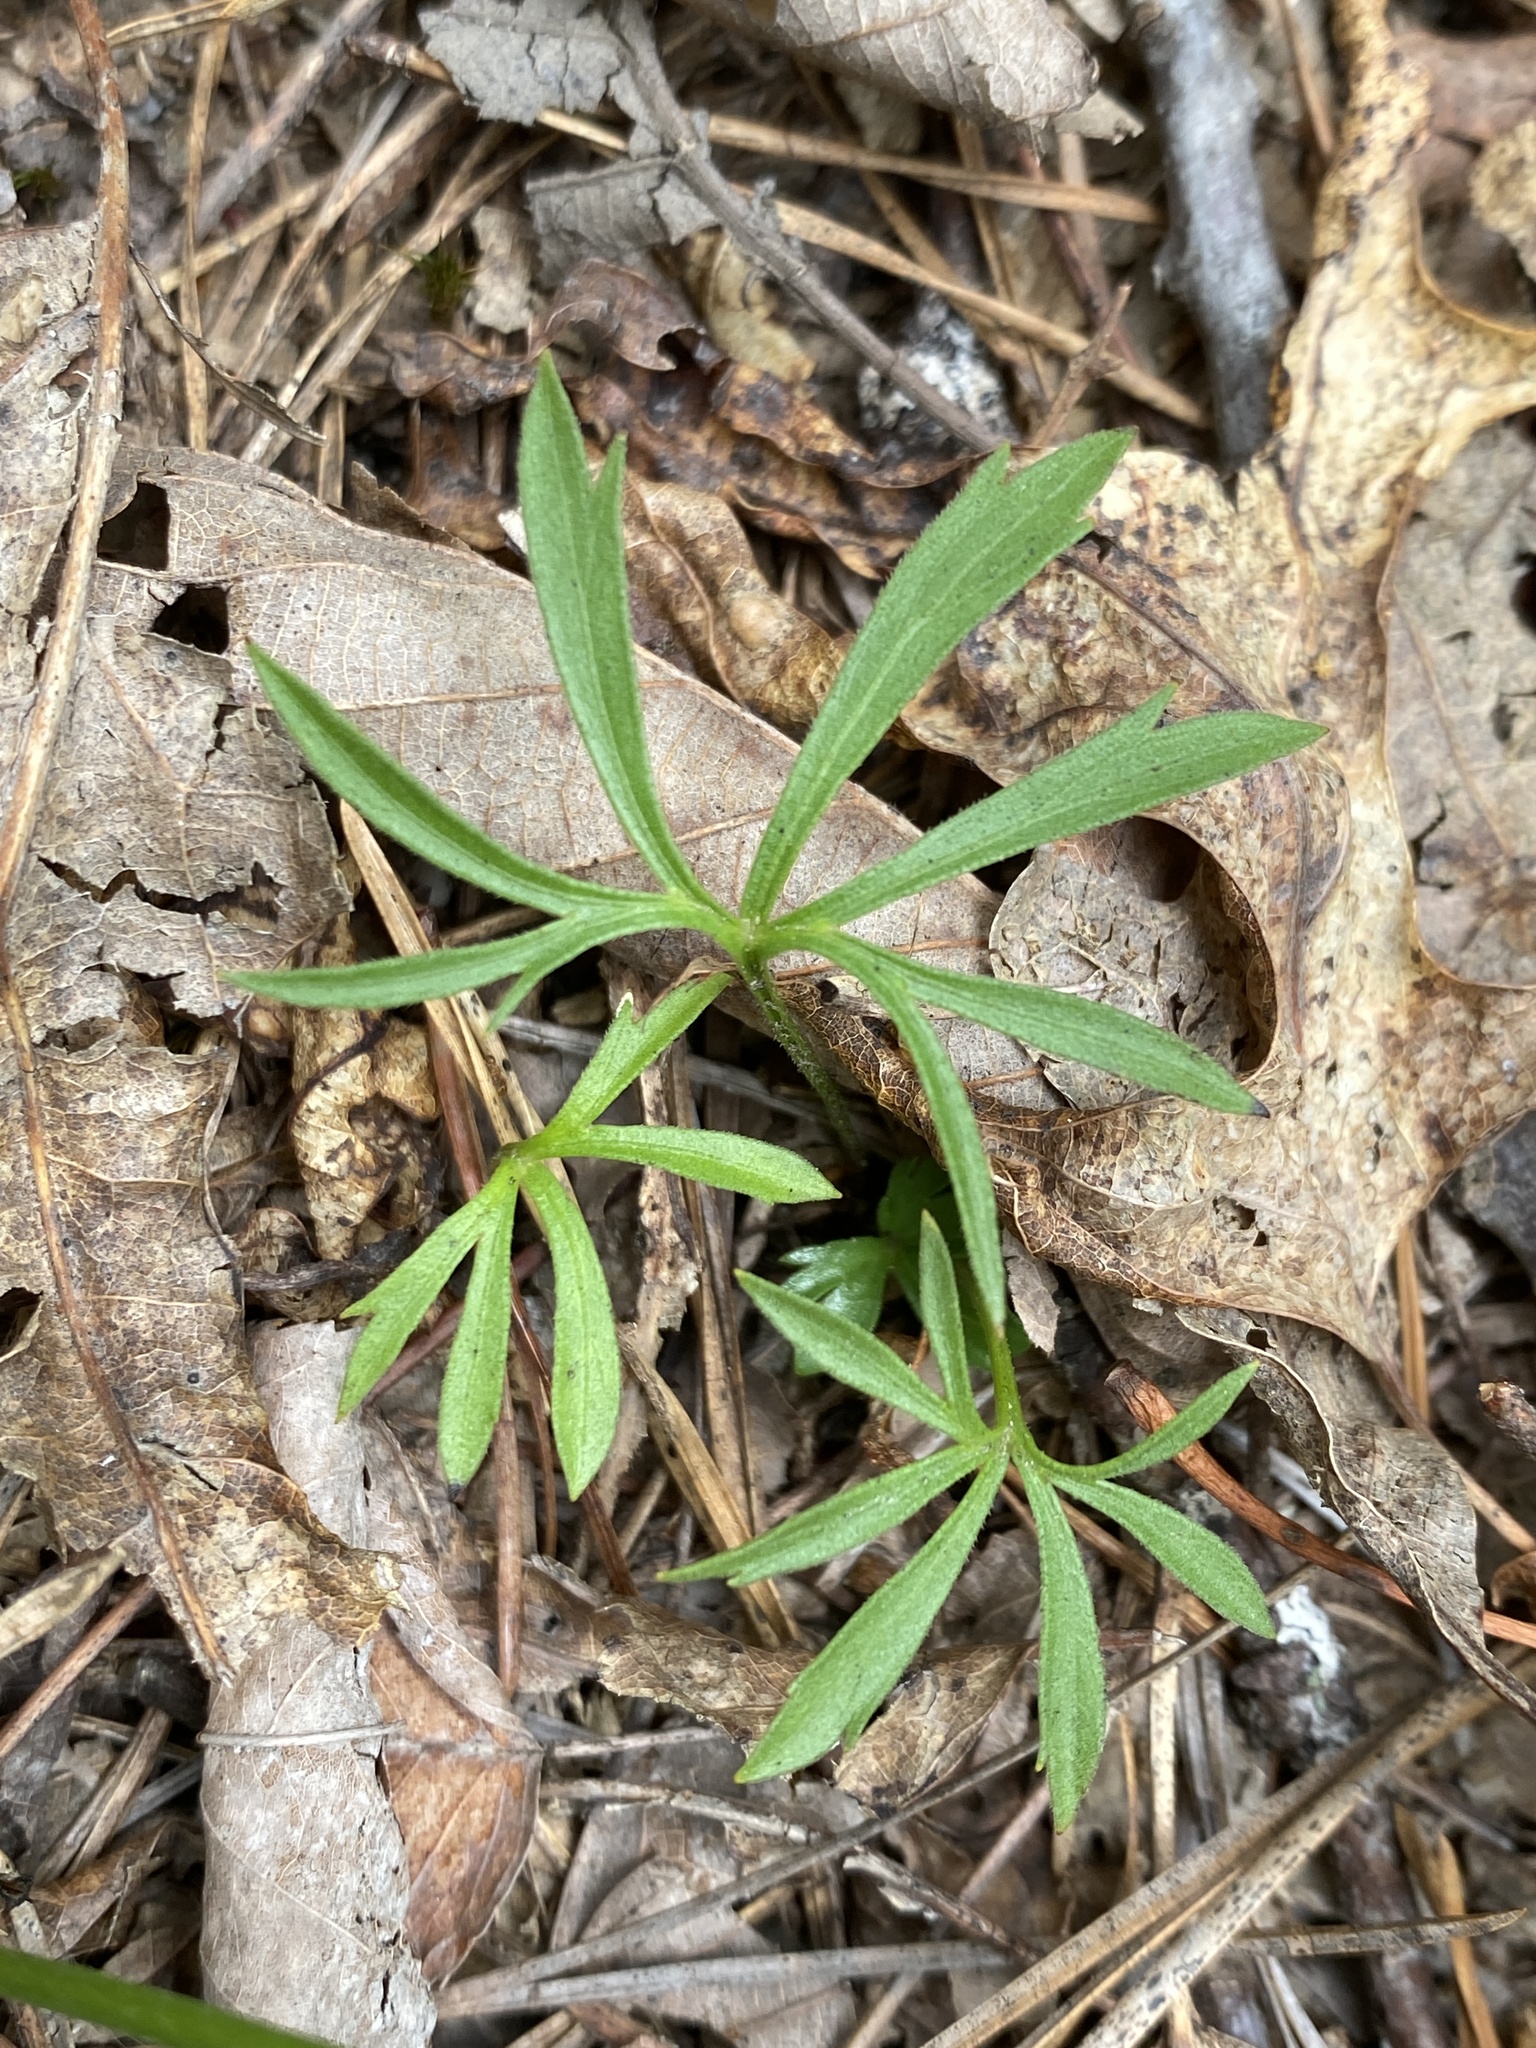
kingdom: Plantae
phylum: Tracheophyta
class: Magnoliopsida
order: Malpighiales
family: Violaceae
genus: Viola
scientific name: Viola pedata
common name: Pansy violet
